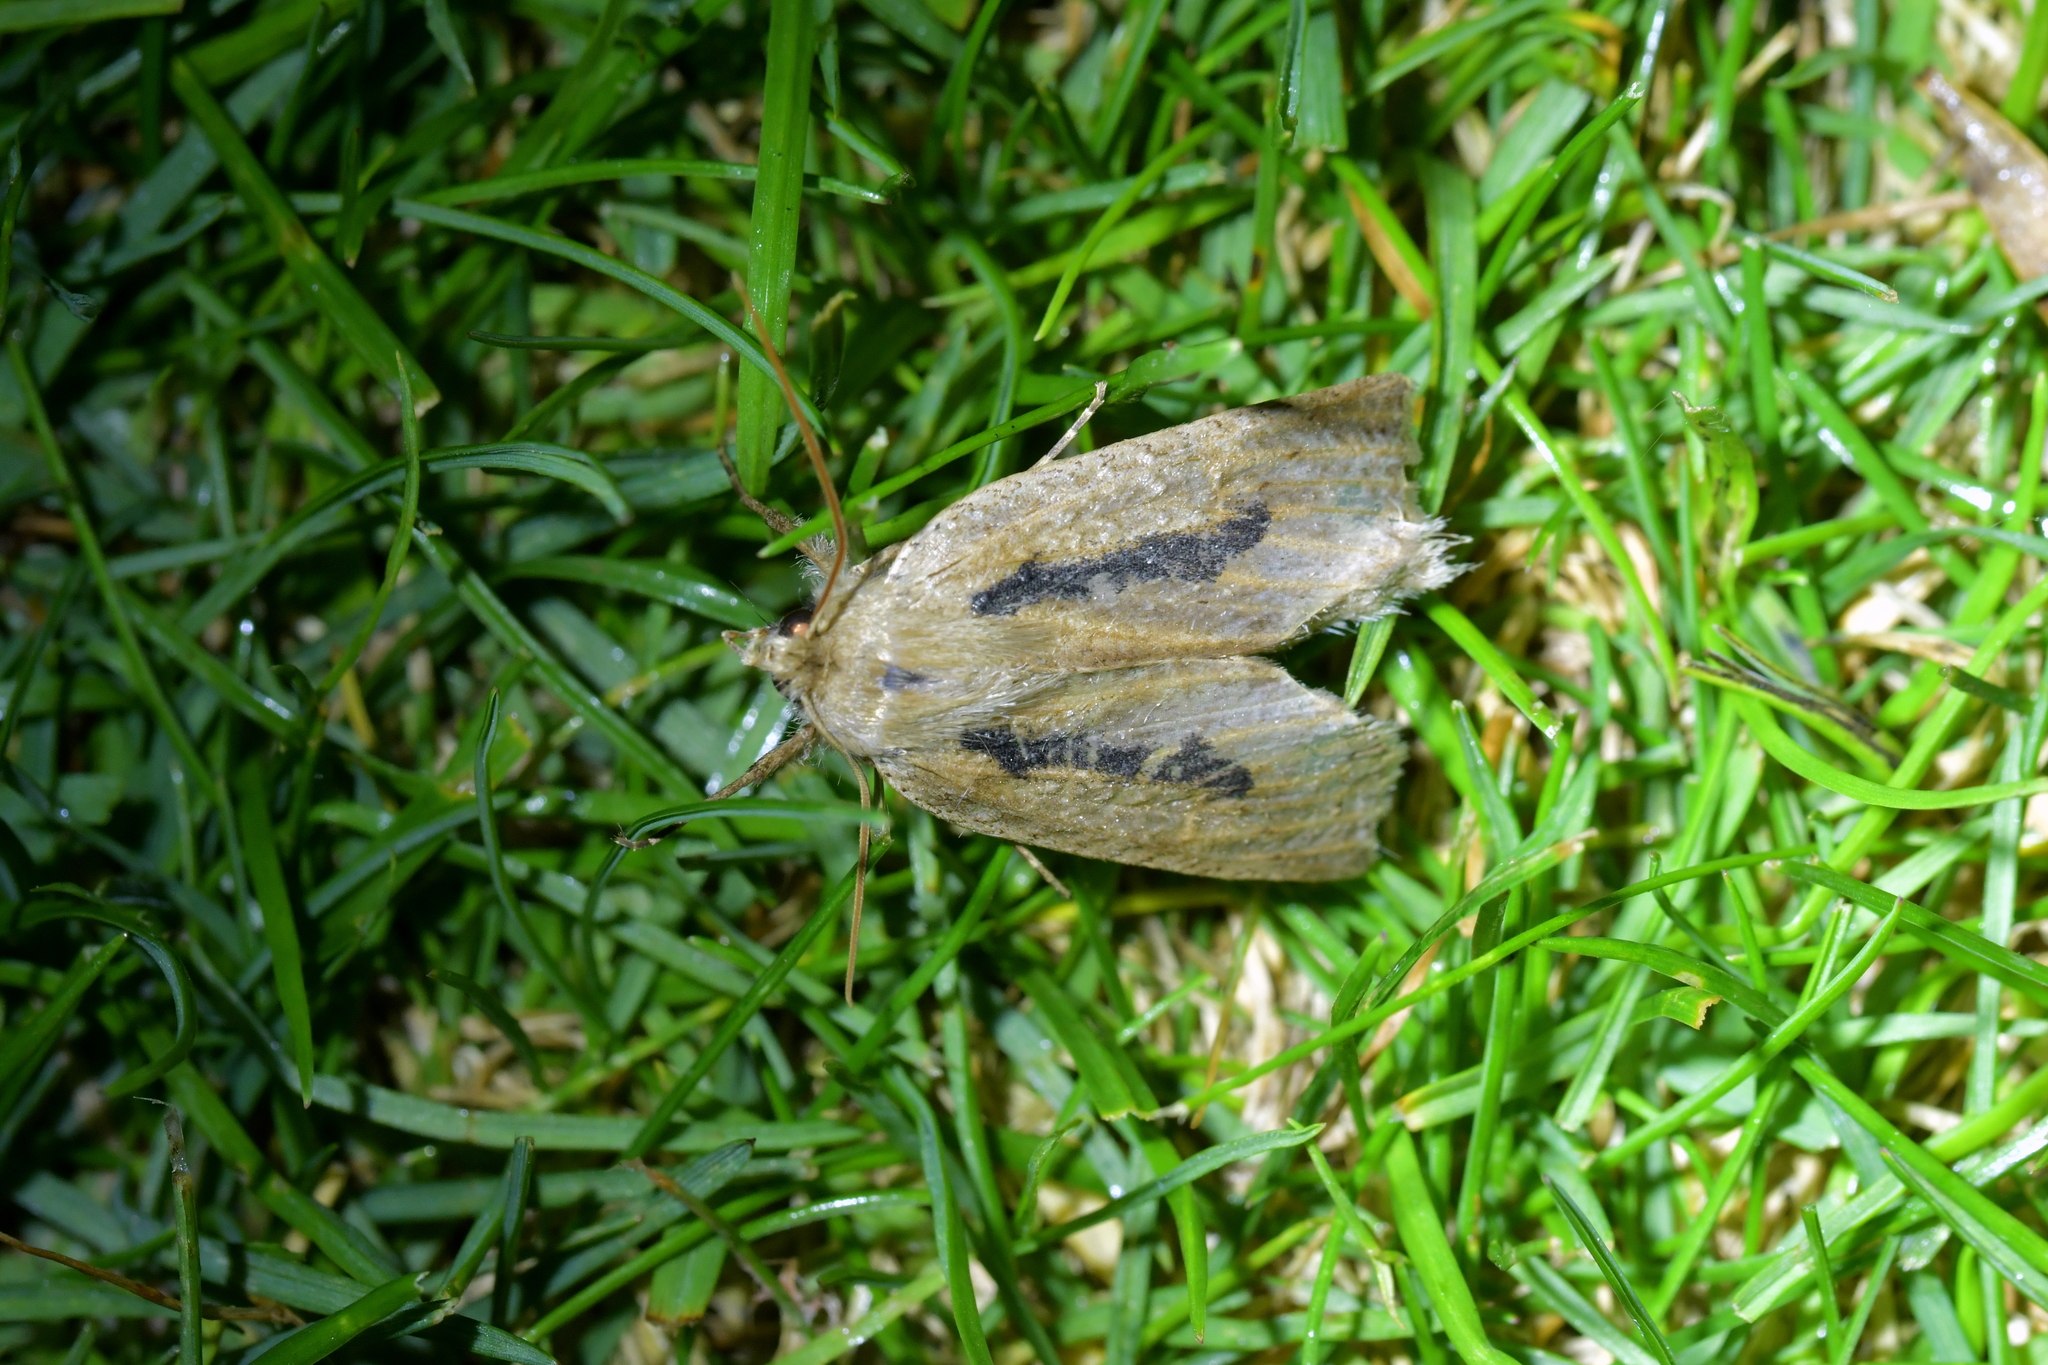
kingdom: Animalia
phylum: Arthropoda
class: Insecta
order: Lepidoptera
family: Geometridae
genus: Declana
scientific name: Declana leptomera
